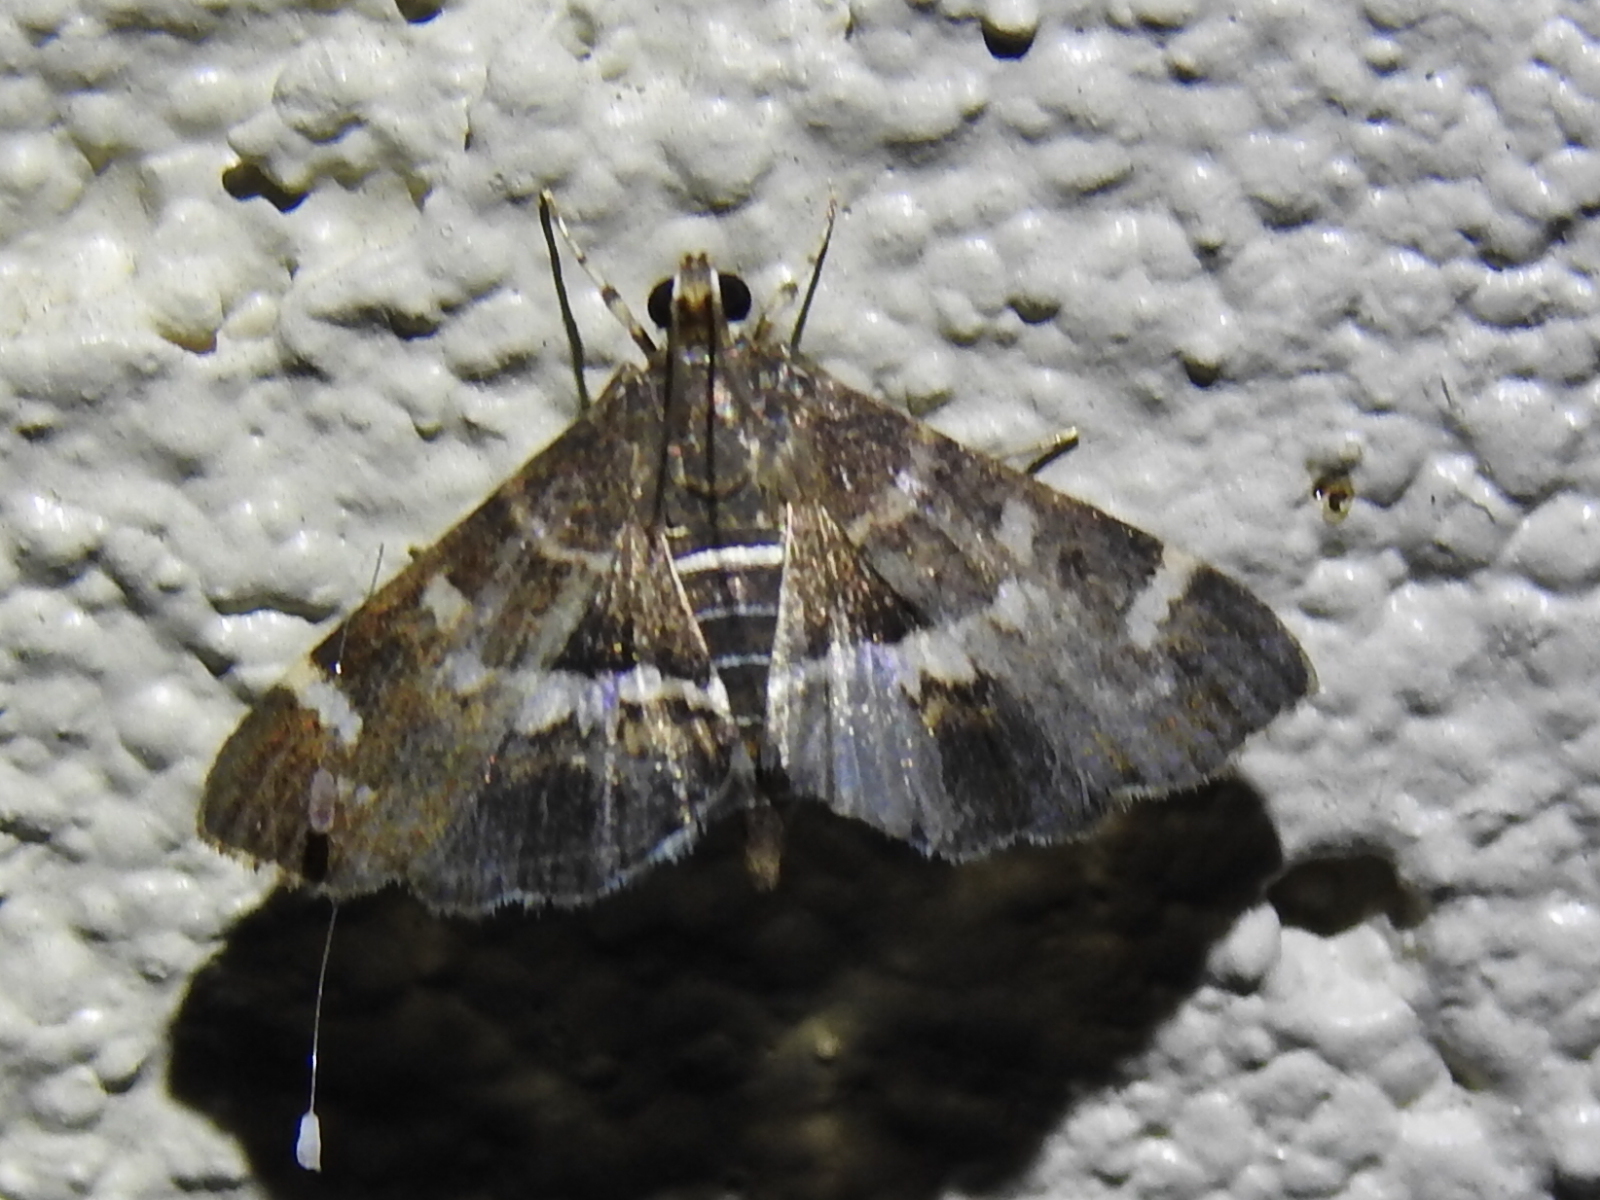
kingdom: Animalia
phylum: Arthropoda
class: Insecta
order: Lepidoptera
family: Crambidae
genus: Hymenia
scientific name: Hymenia perspectalis
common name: Spotted beet webworm
